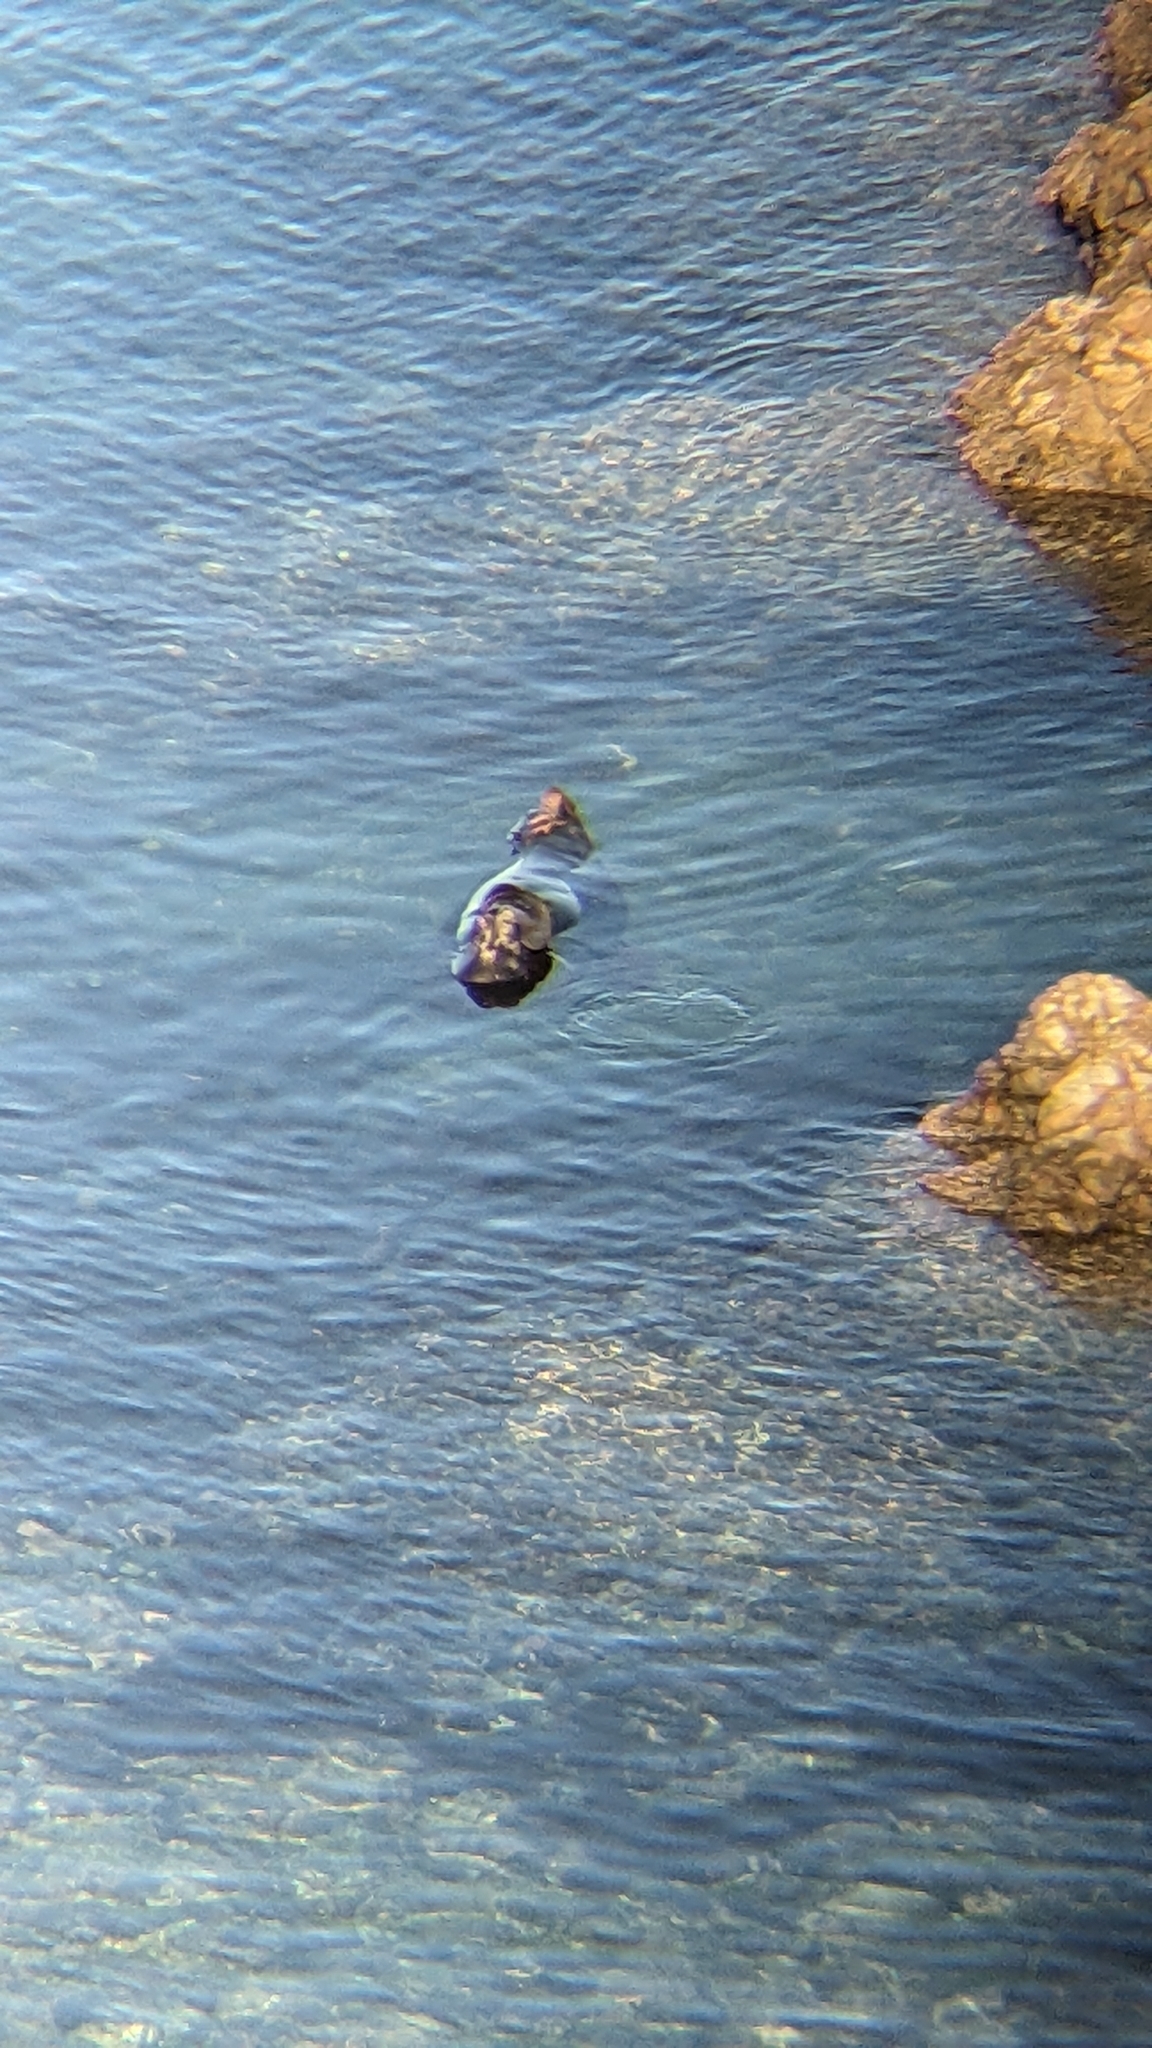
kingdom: Animalia
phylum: Chordata
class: Mammalia
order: Carnivora
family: Otariidae
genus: Arctocephalus
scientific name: Arctocephalus forsteri
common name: New zealand fur seal
